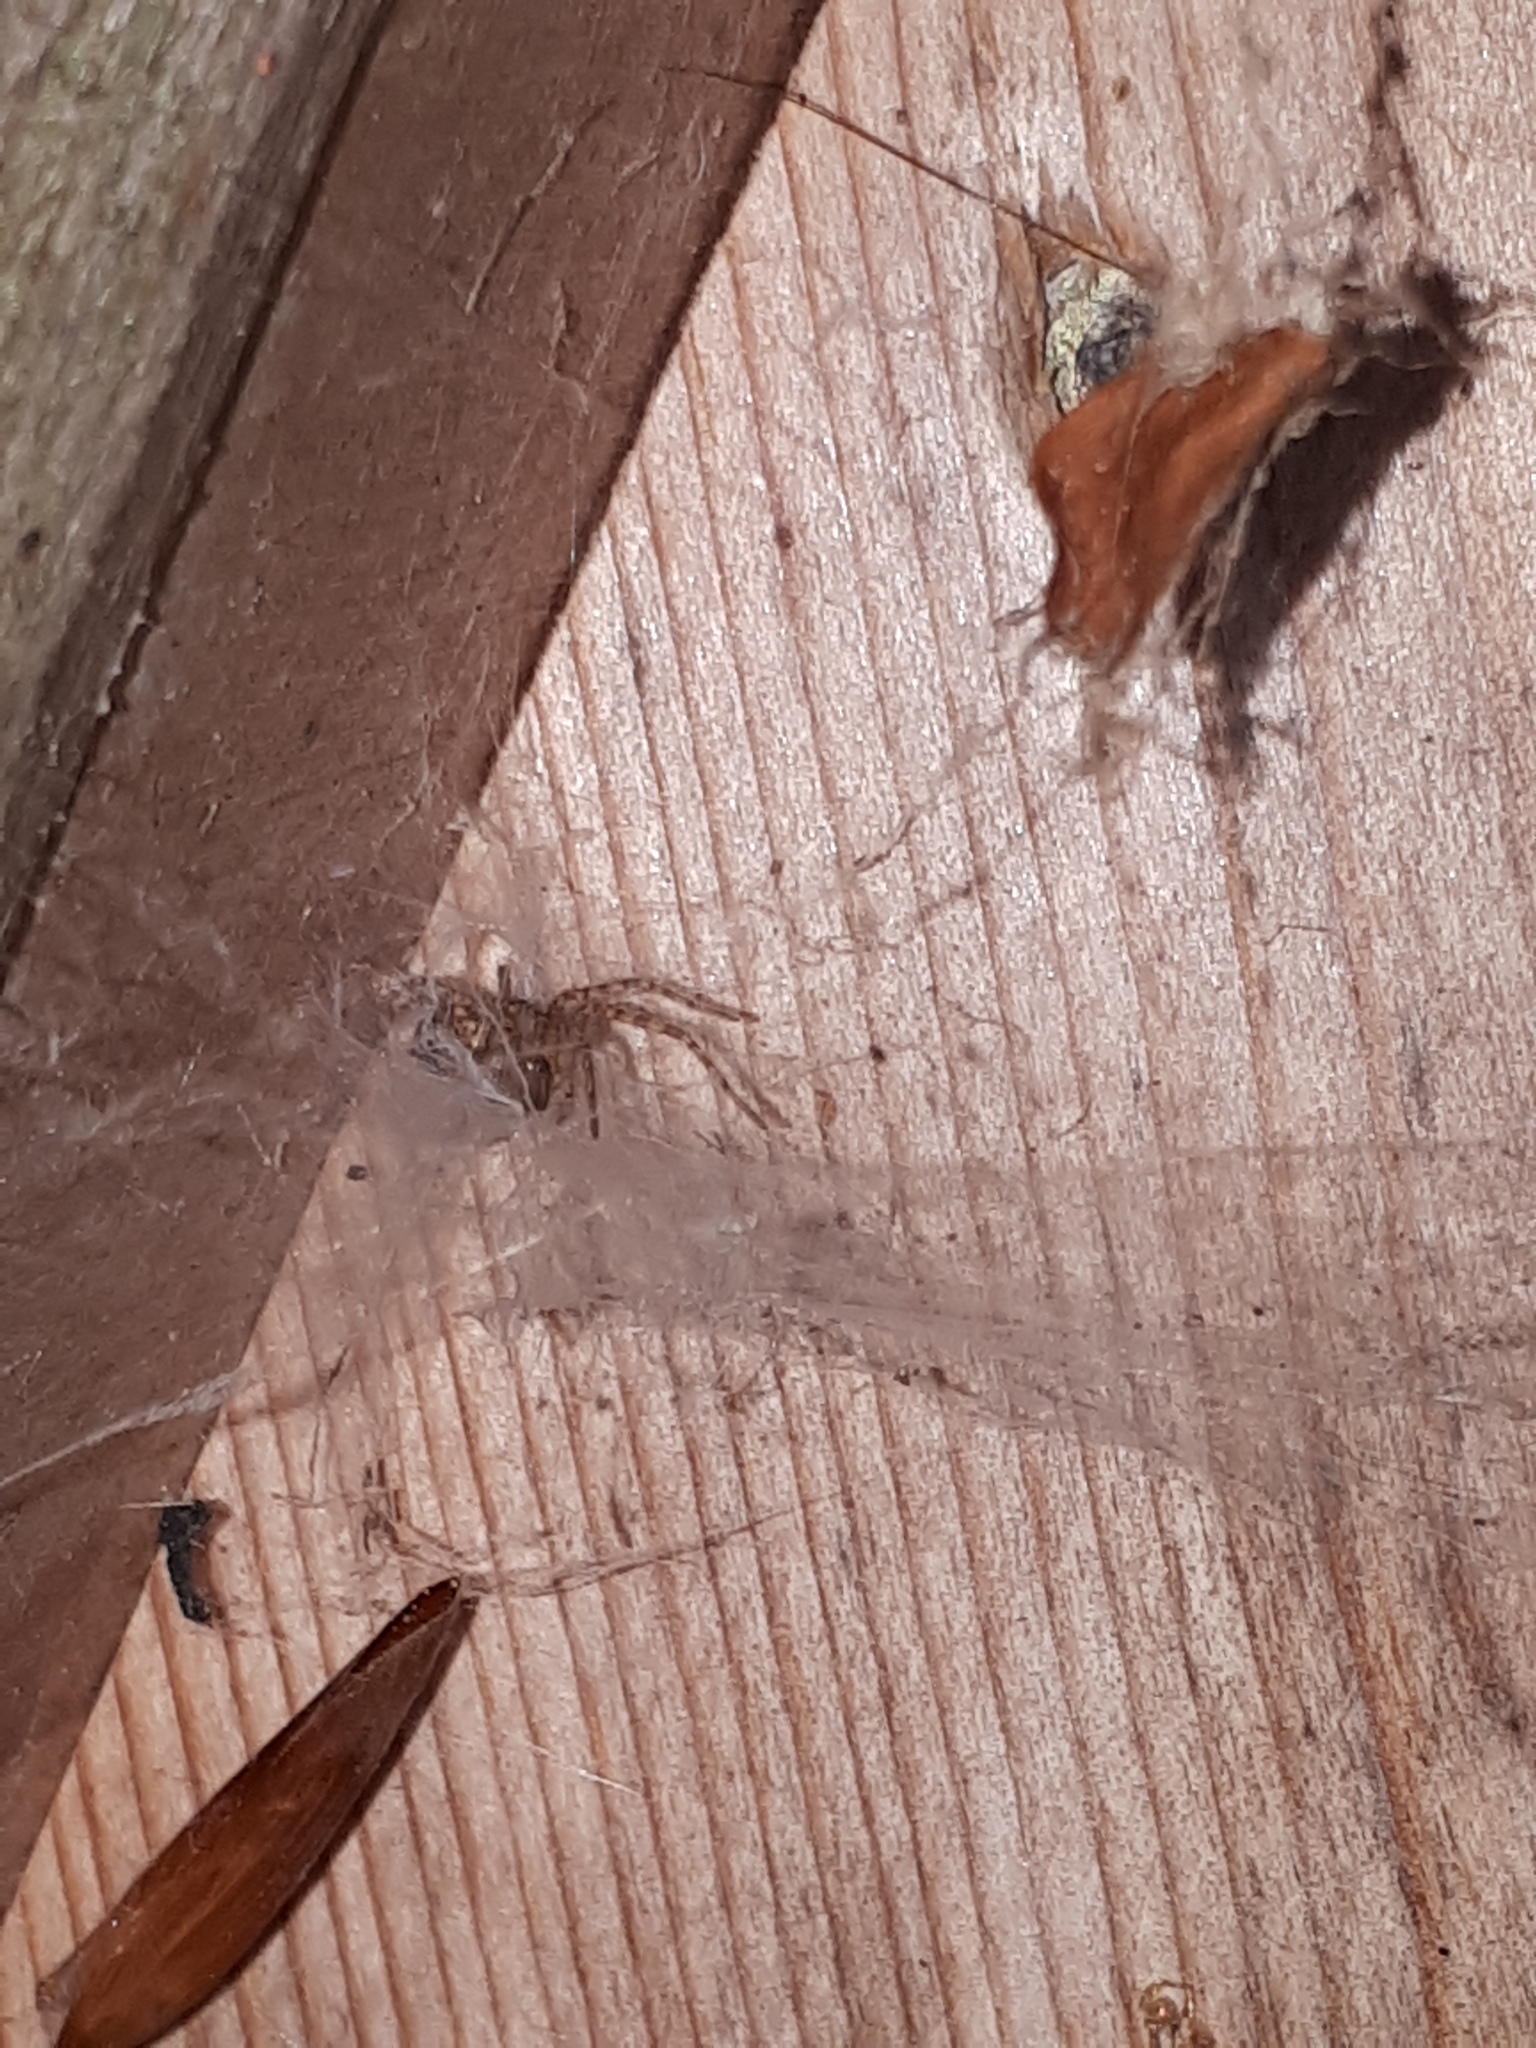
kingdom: Animalia
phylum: Arthropoda
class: Arachnida
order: Araneae
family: Agelenidae
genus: Tegenaria
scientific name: Tegenaria ferruginea
